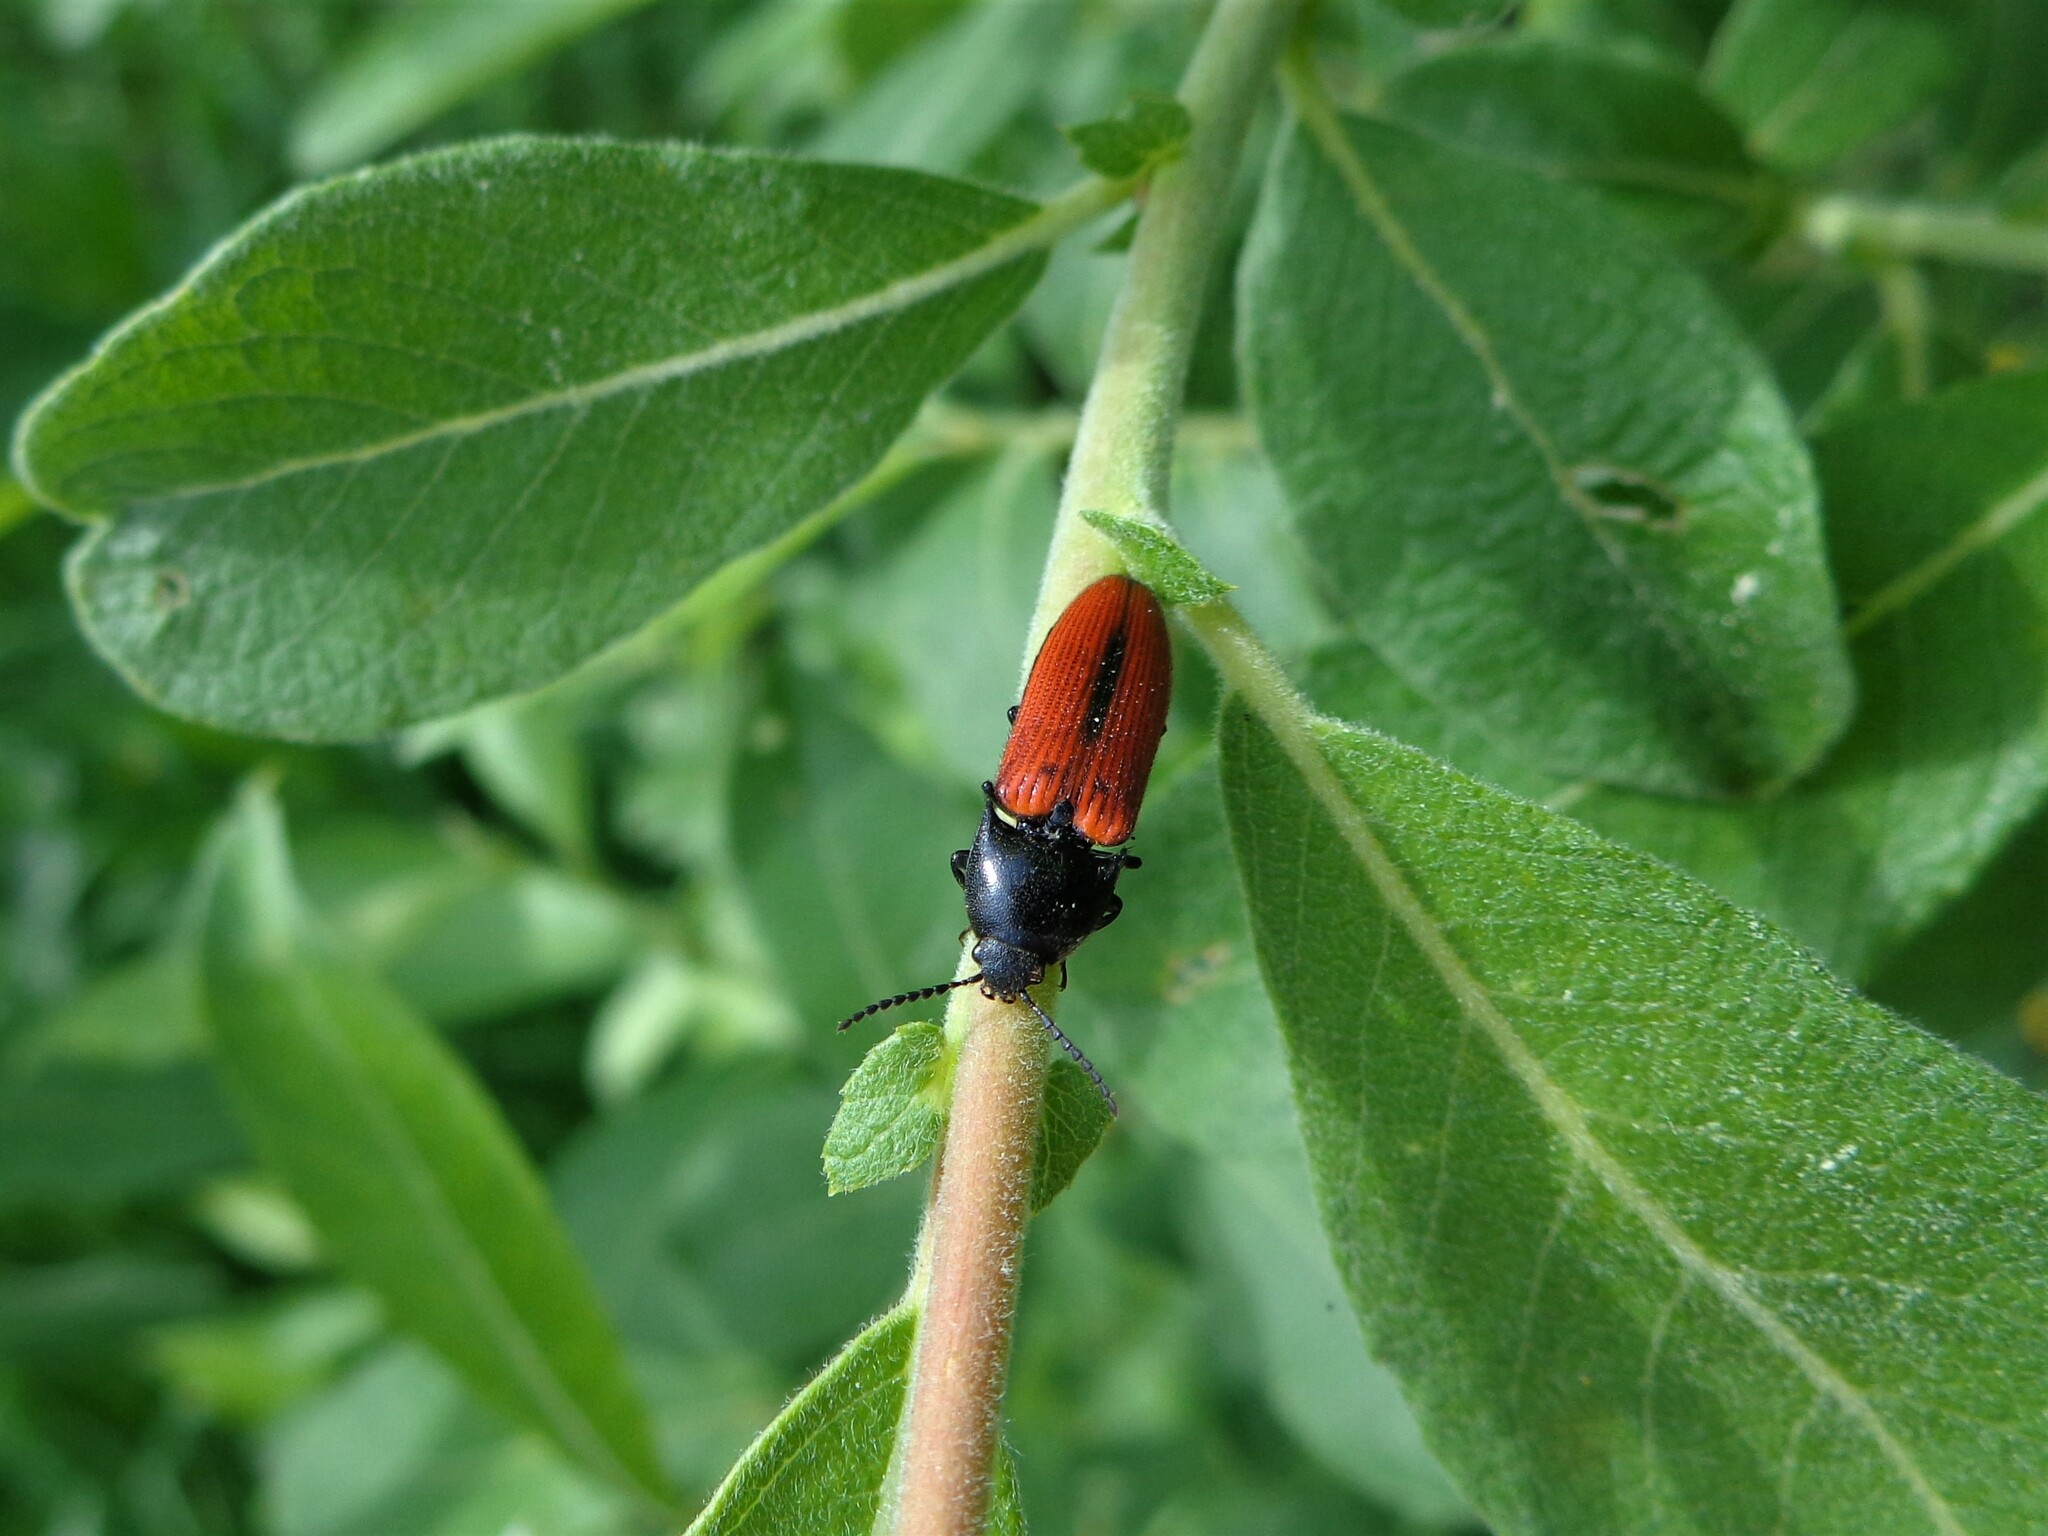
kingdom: Animalia
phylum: Arthropoda
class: Insecta
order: Coleoptera
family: Elateridae
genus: Ampedus
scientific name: Ampedus sanguinolentus
